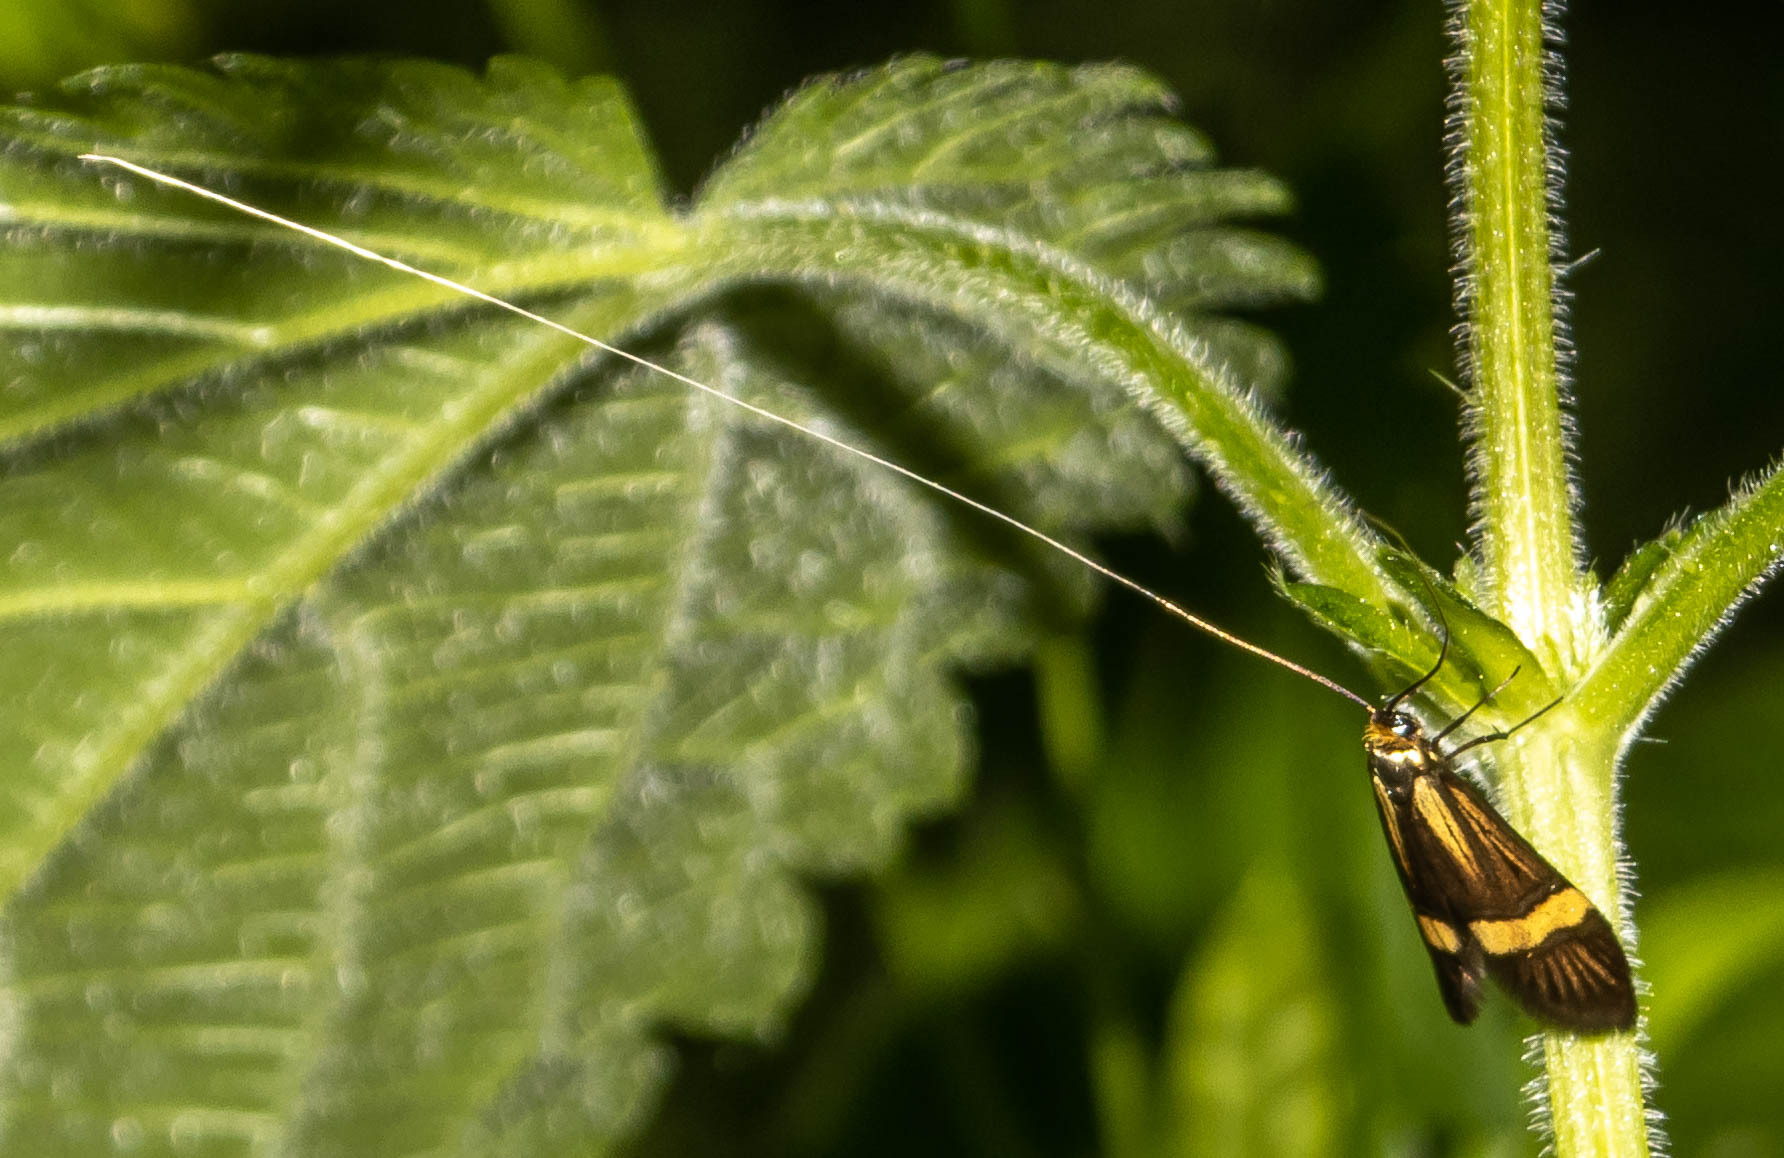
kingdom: Animalia
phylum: Arthropoda
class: Insecta
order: Lepidoptera
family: Adelidae
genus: Nemophora
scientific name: Nemophora degeerella
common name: Yellow-barred long-horn
